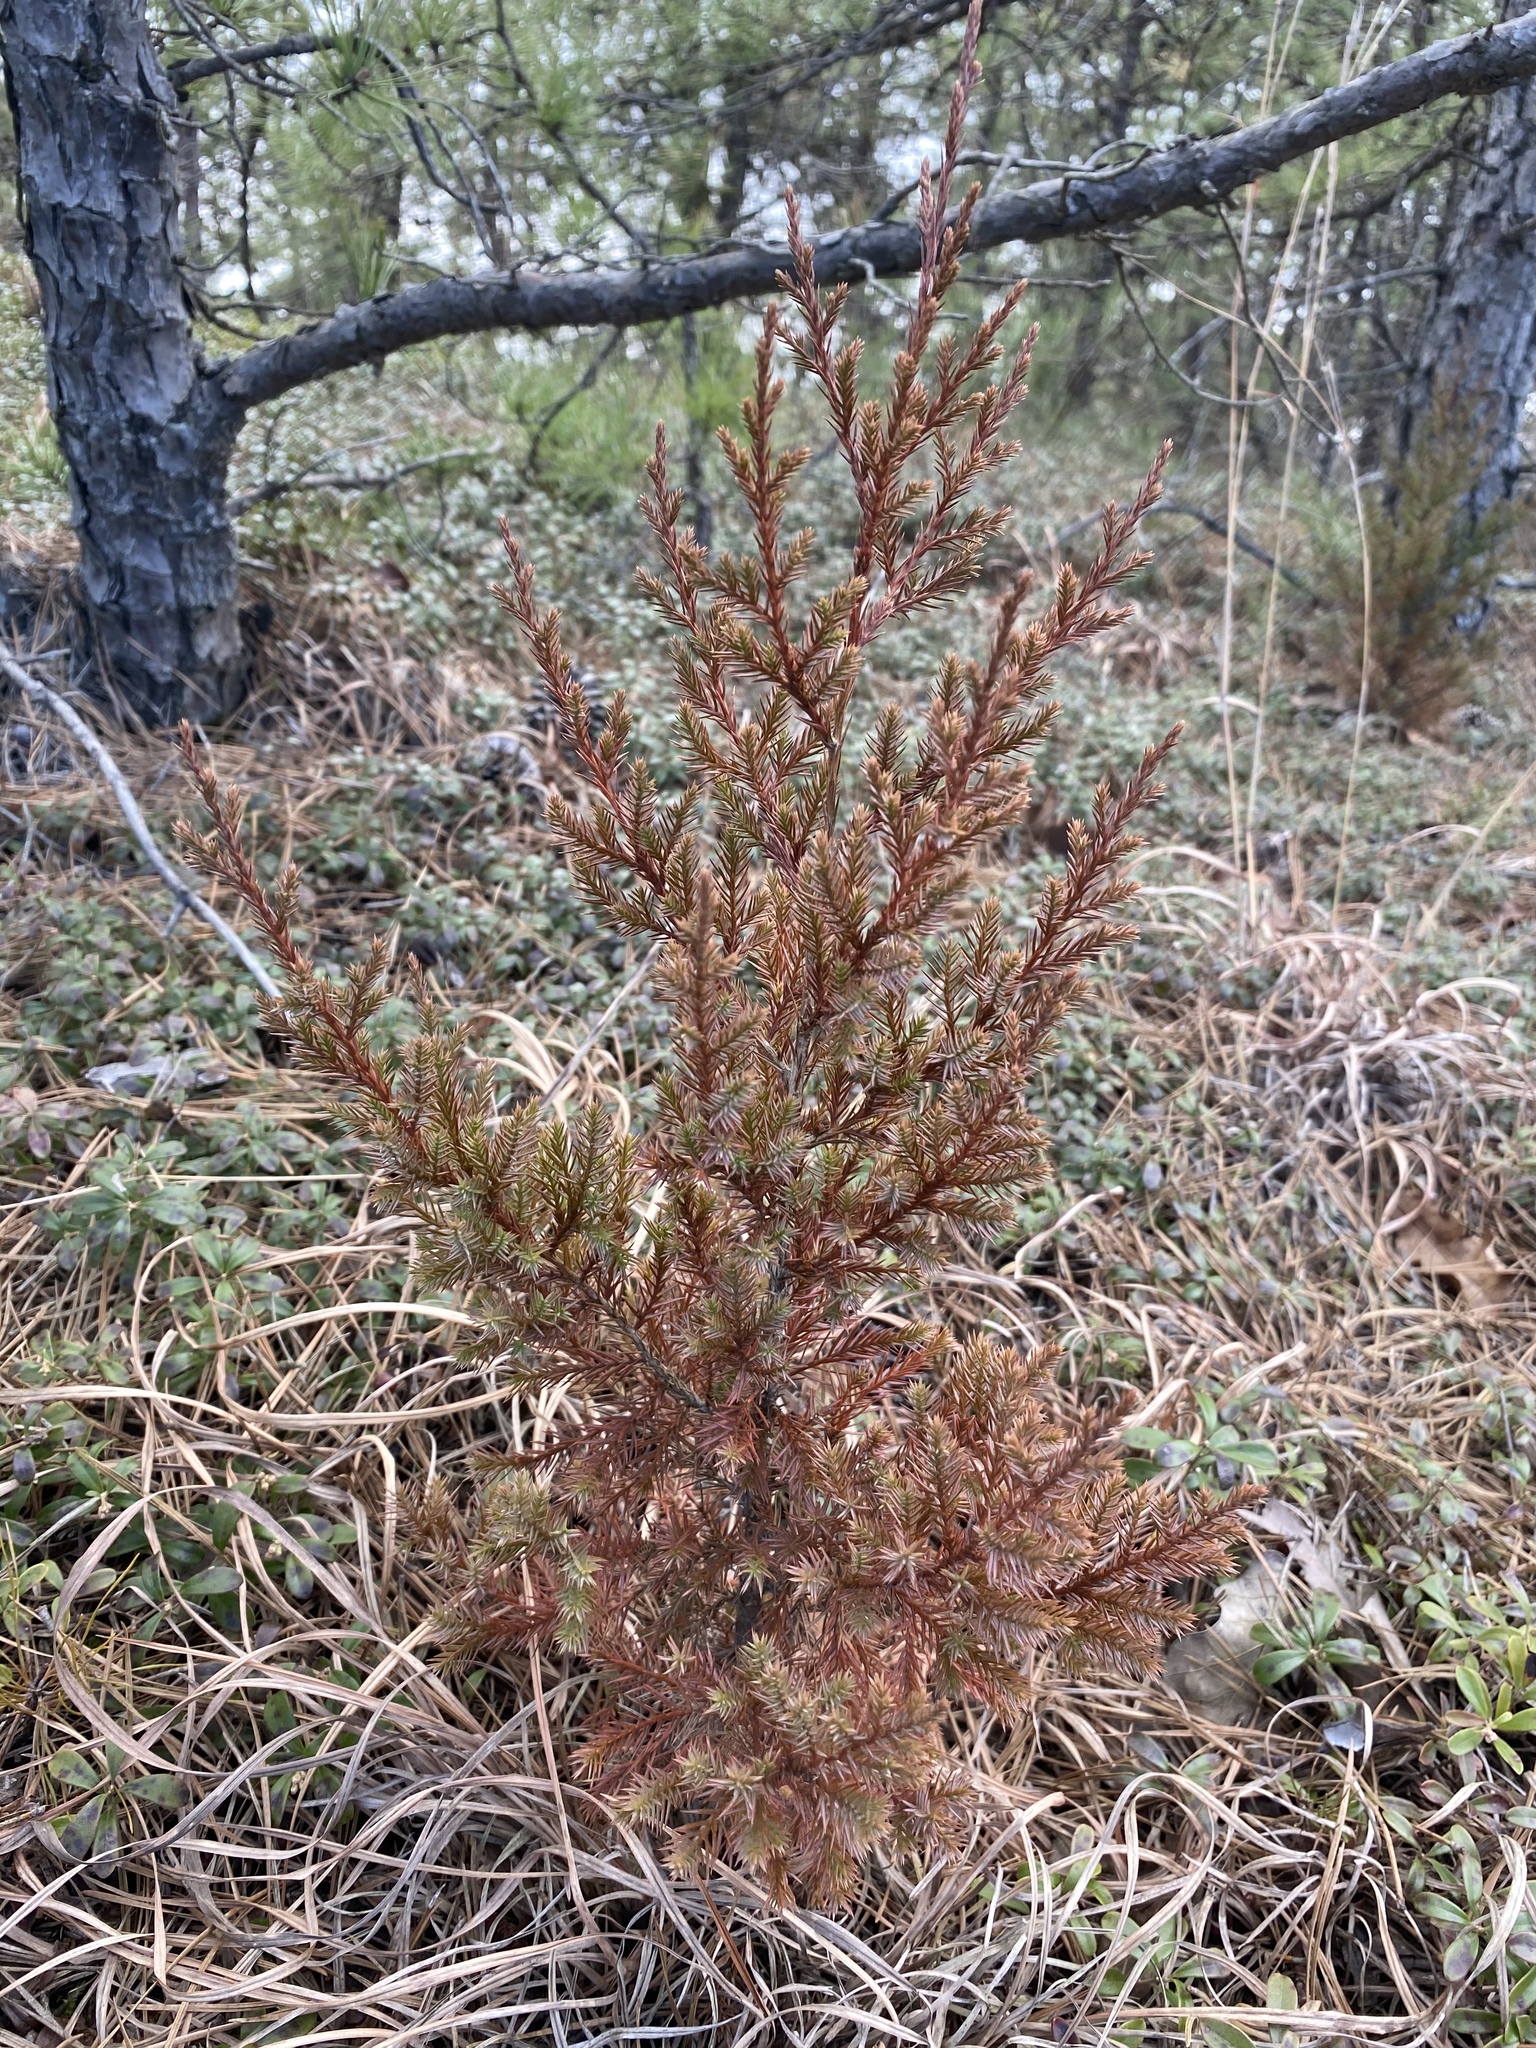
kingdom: Plantae
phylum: Tracheophyta
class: Pinopsida
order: Pinales
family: Cupressaceae
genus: Juniperus
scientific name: Juniperus virginiana
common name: Red juniper
